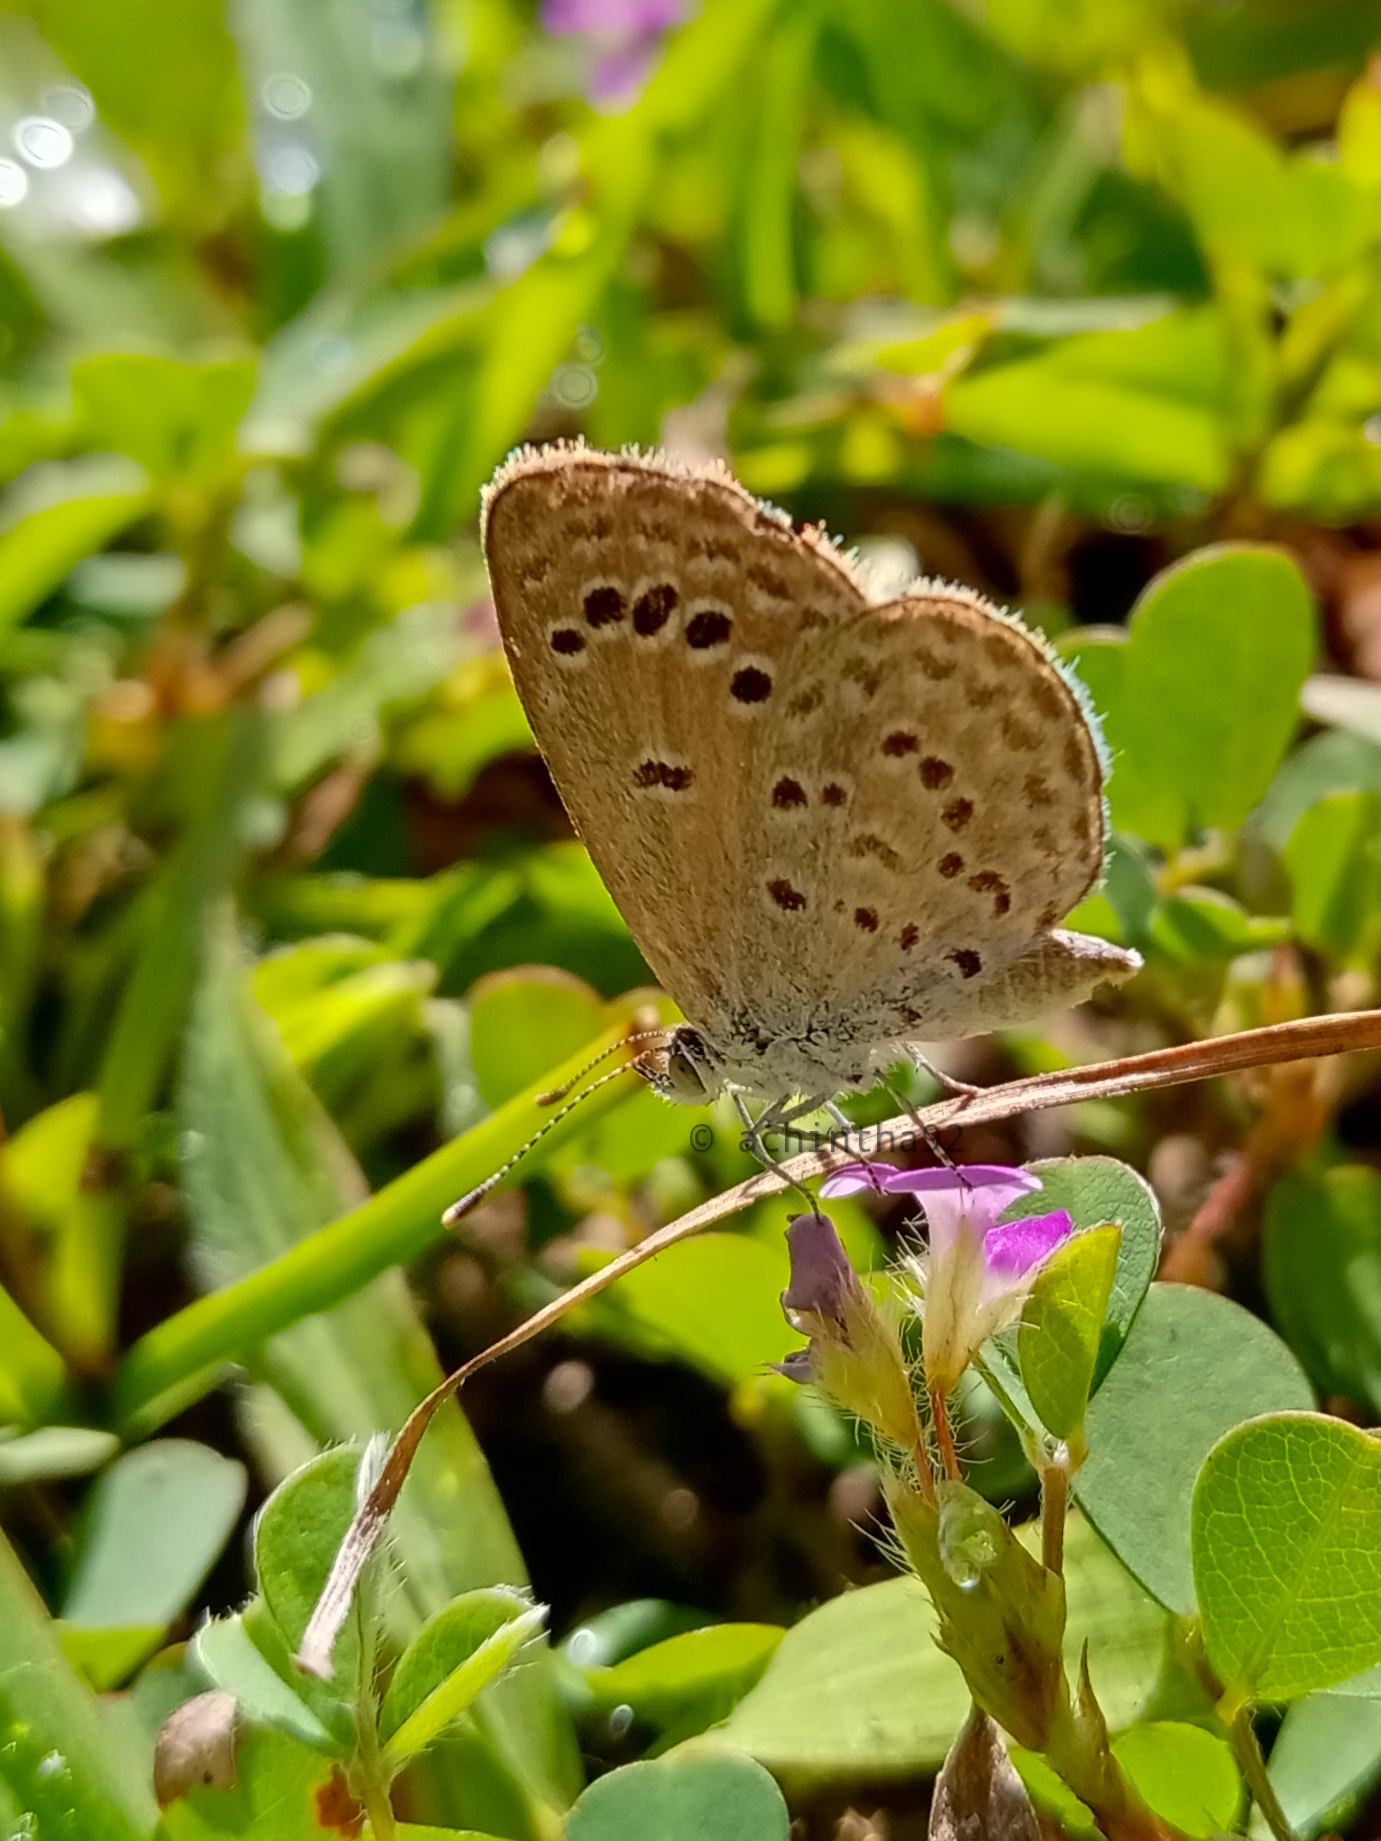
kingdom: Animalia
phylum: Arthropoda
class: Insecta
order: Lepidoptera
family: Lycaenidae
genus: Zizina
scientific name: Zizina otis
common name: Lesser grass blue
